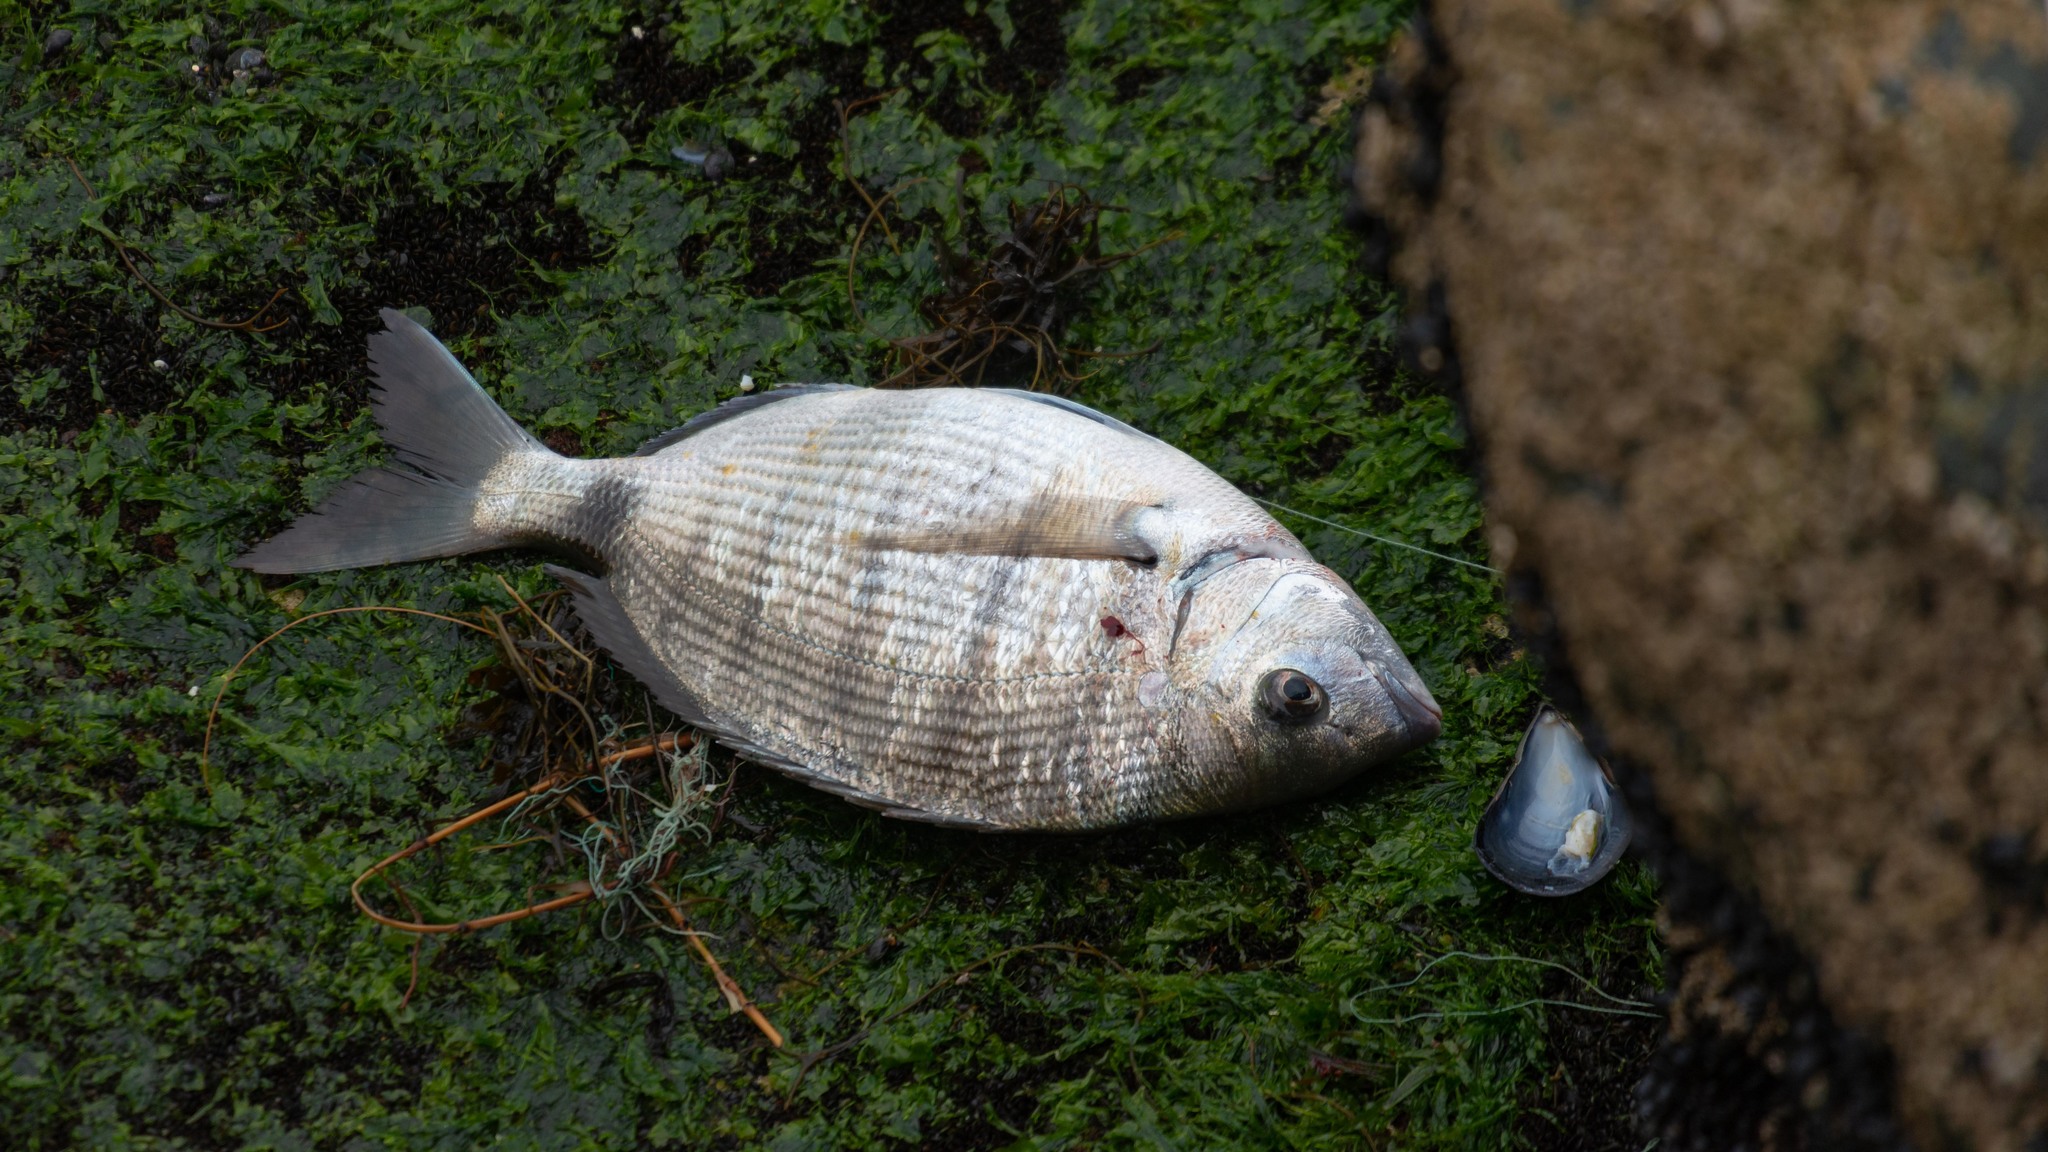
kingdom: Animalia
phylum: Chordata
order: Perciformes
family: Sparidae
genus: Diplodus
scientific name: Diplodus cadenati
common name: Moroccan white seabream
